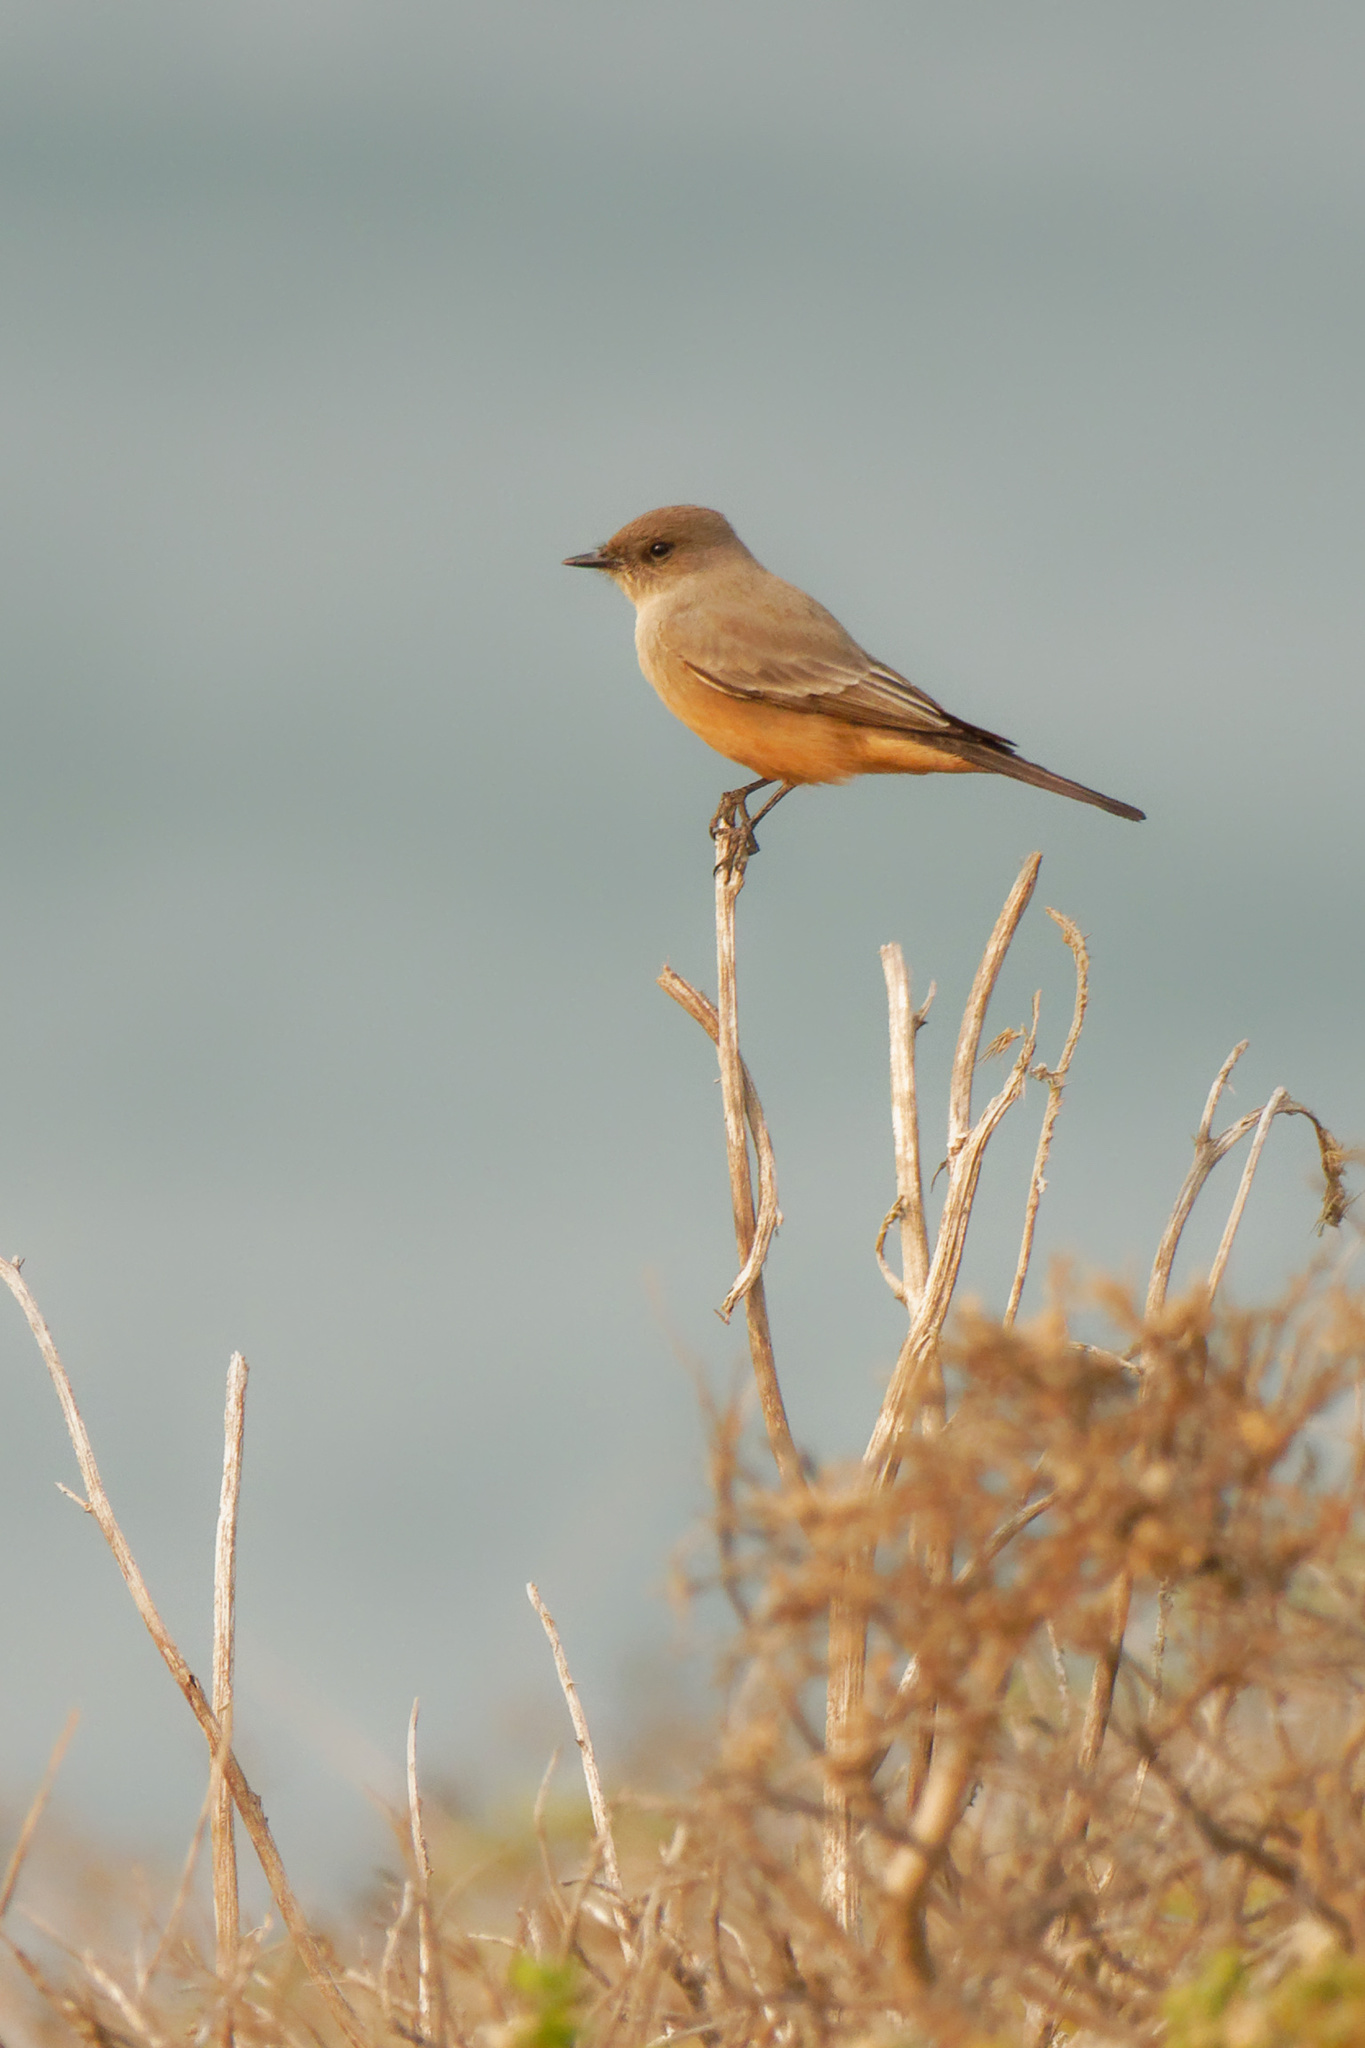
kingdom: Animalia
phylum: Chordata
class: Aves
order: Passeriformes
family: Tyrannidae
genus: Sayornis
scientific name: Sayornis saya
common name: Say's phoebe
